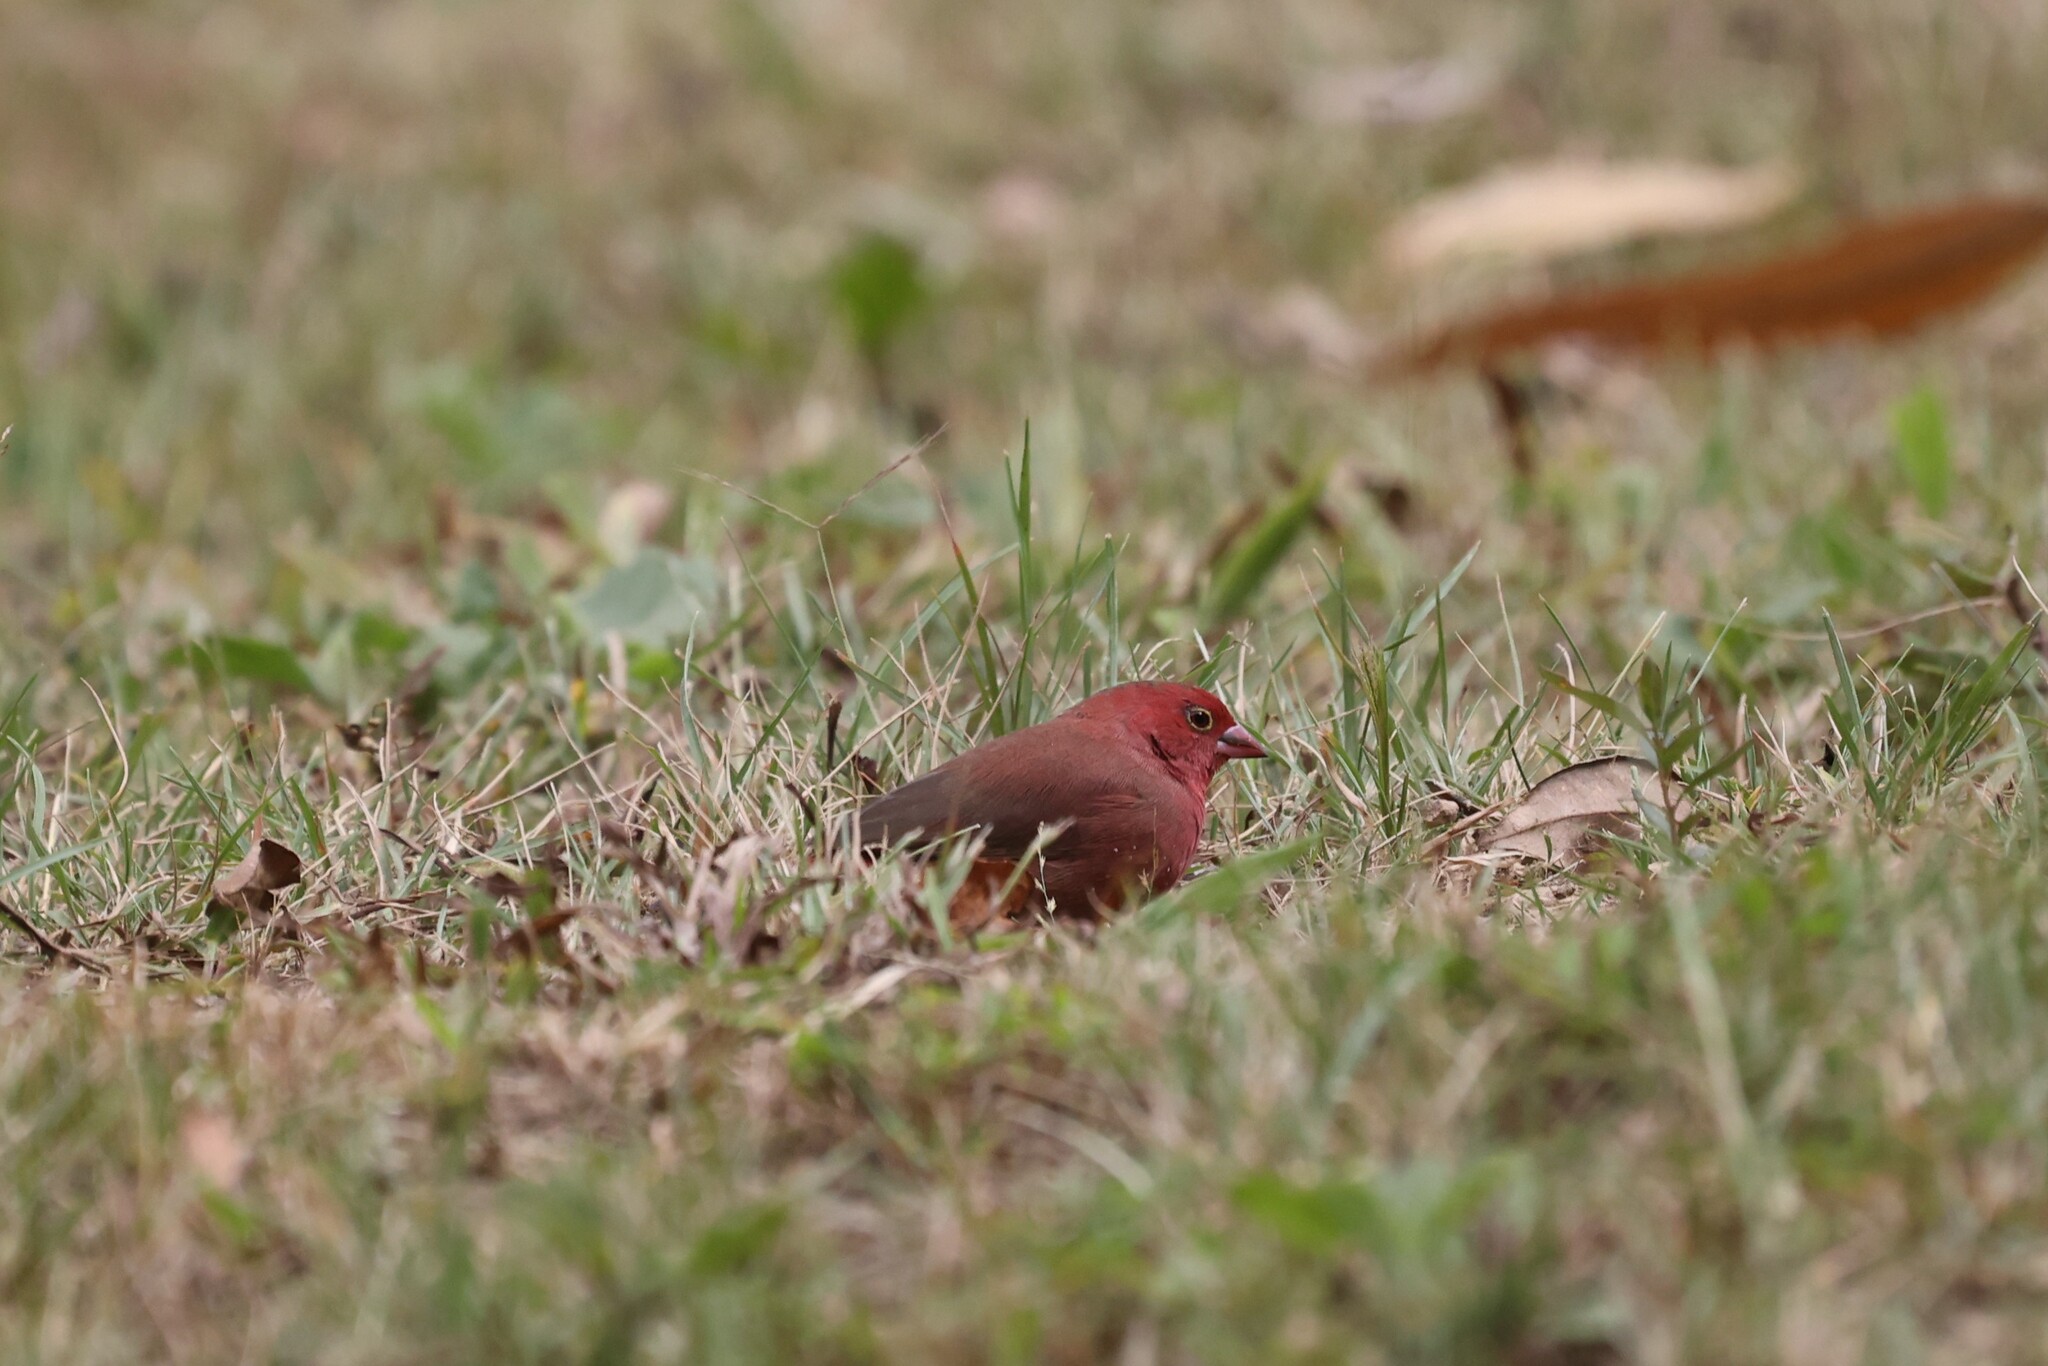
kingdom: Animalia
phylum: Chordata
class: Aves
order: Passeriformes
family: Estrildidae
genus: Lagonosticta
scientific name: Lagonosticta senegala
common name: Red-billed firefinch
